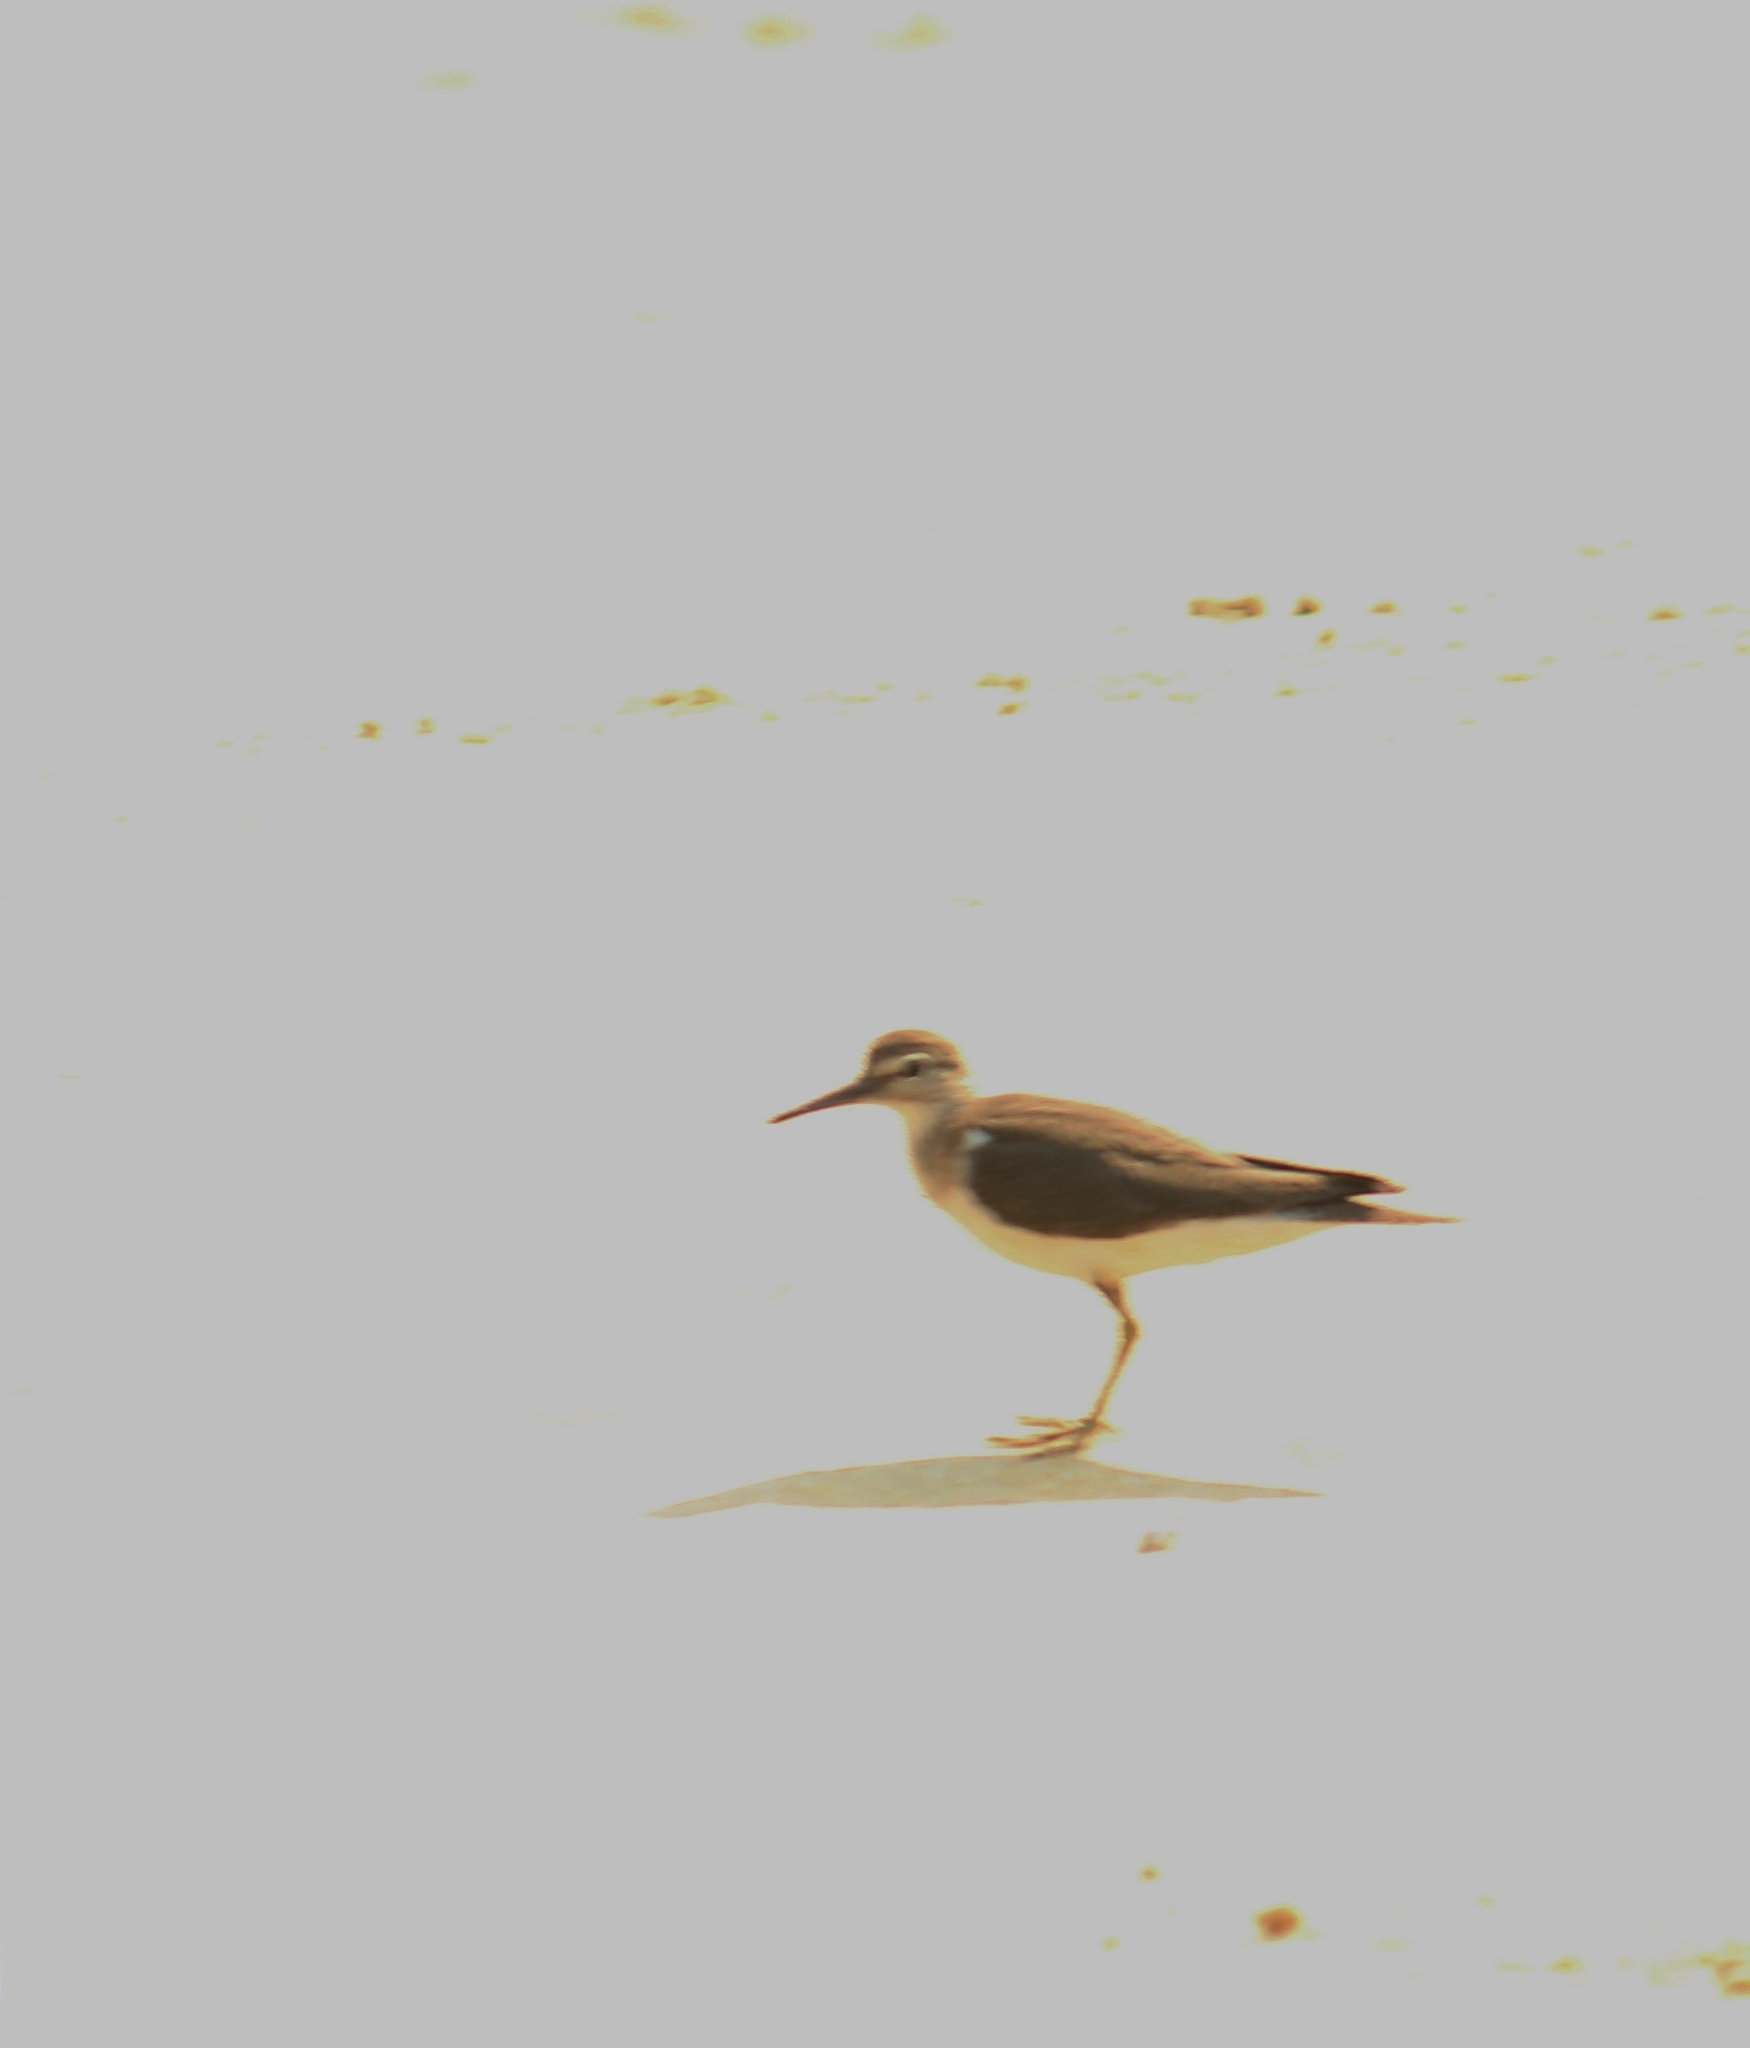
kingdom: Animalia
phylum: Chordata
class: Aves
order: Charadriiformes
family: Scolopacidae
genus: Actitis
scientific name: Actitis hypoleucos
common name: Common sandpiper
